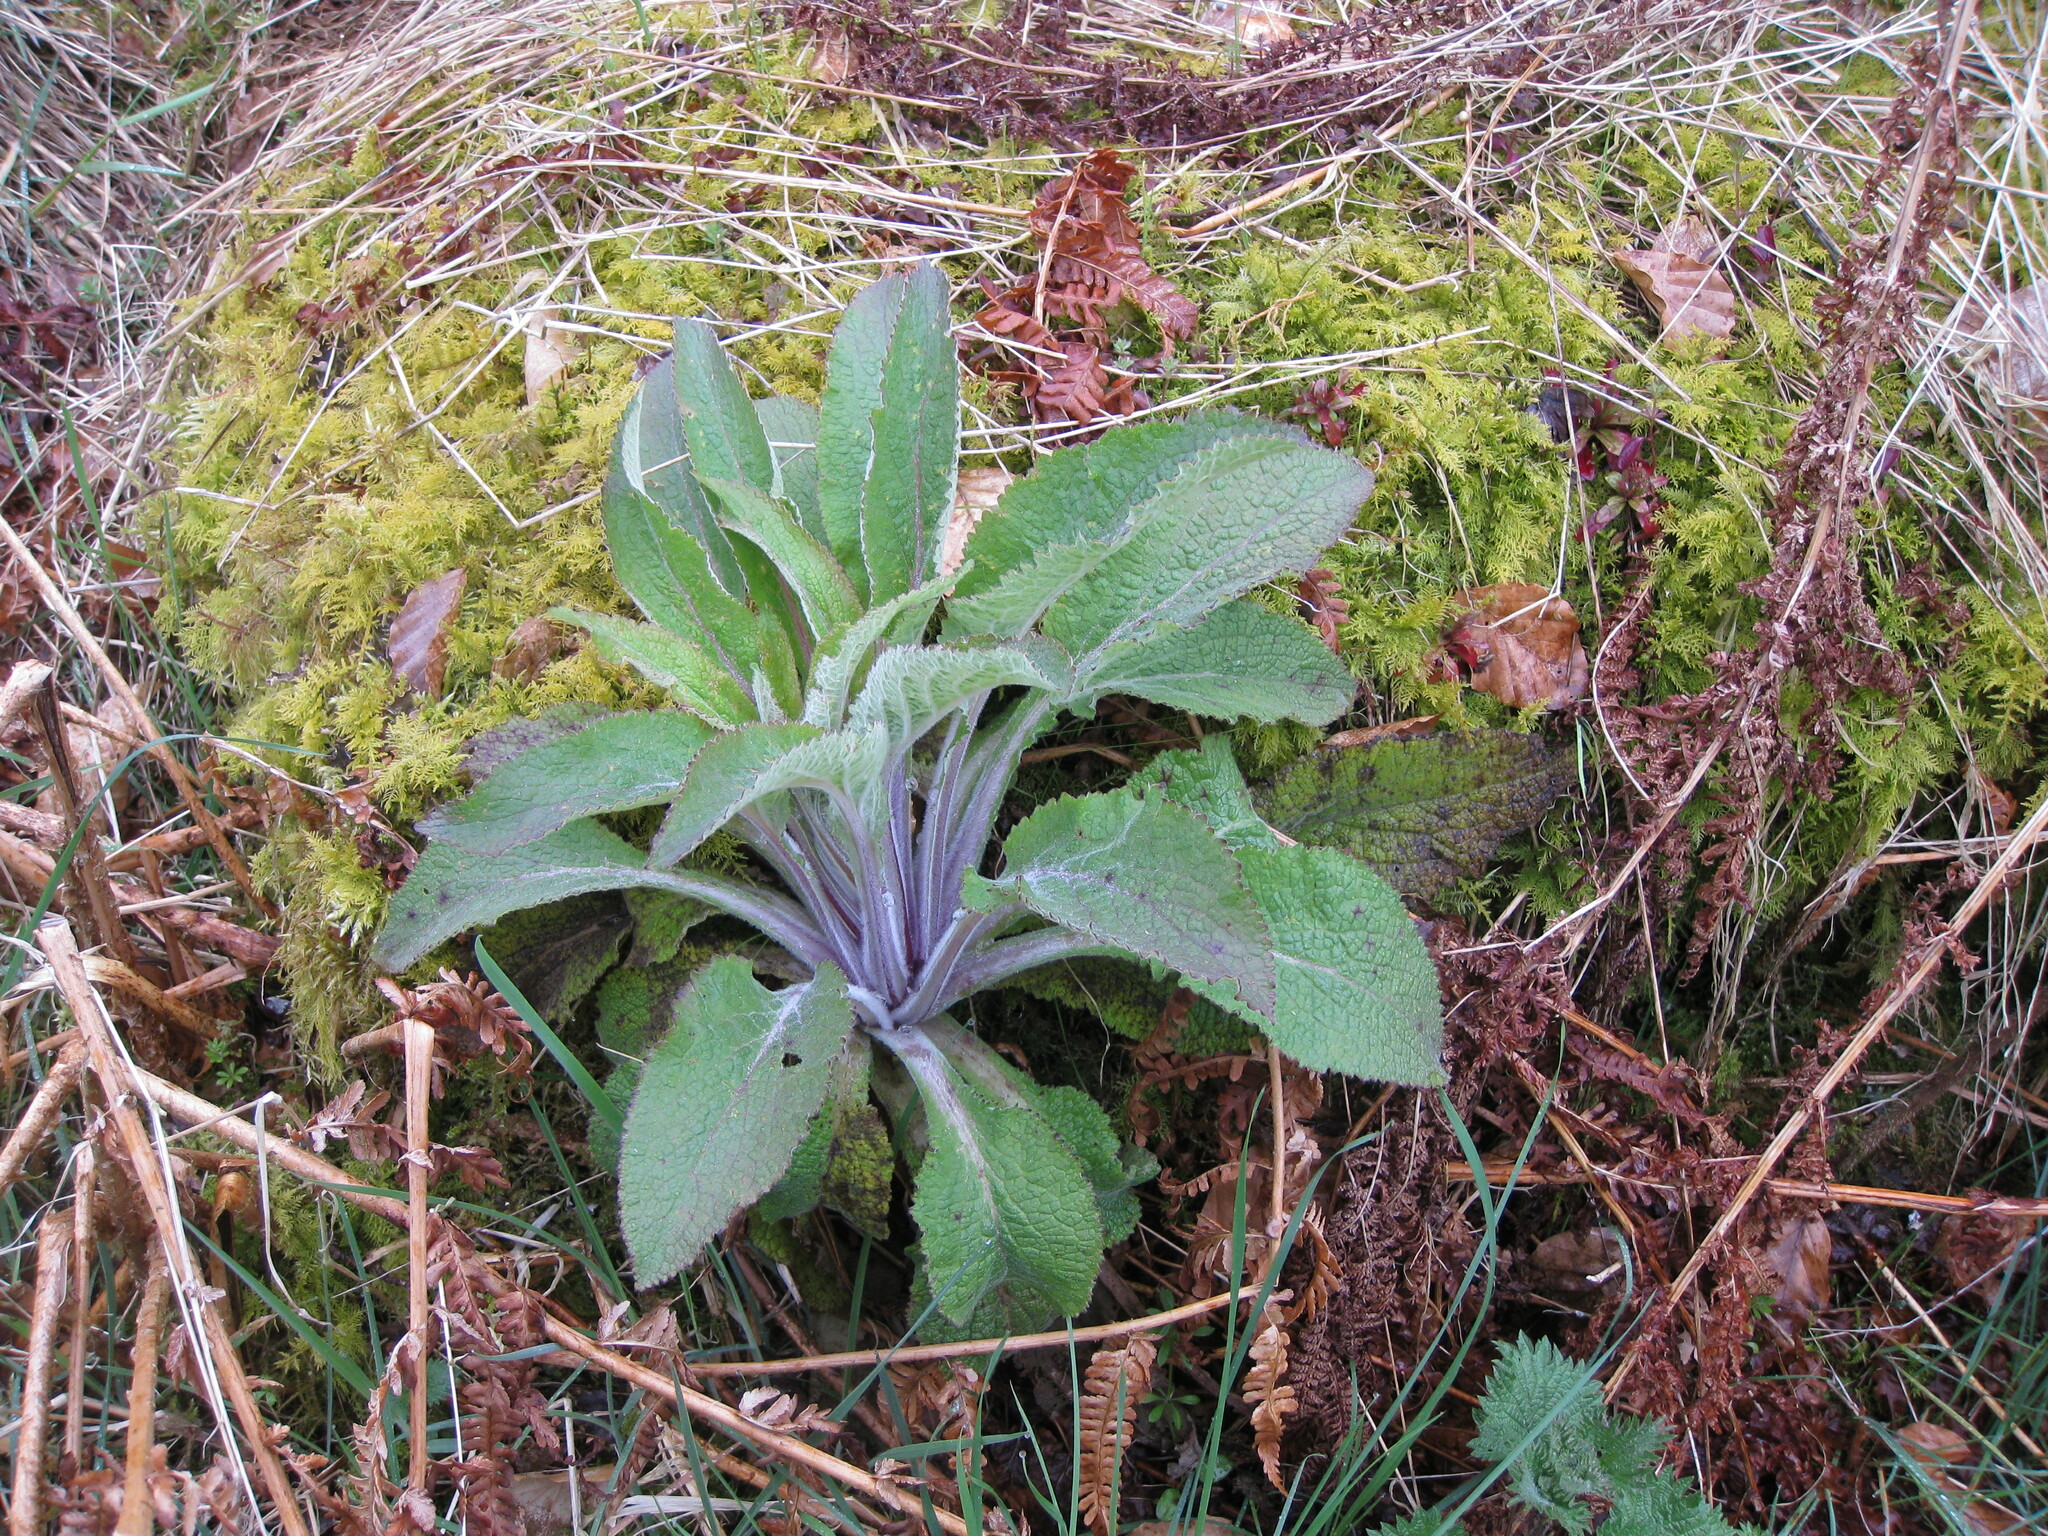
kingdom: Plantae
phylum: Tracheophyta
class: Magnoliopsida
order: Lamiales
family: Plantaginaceae
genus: Digitalis
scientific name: Digitalis purpurea
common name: Foxglove
